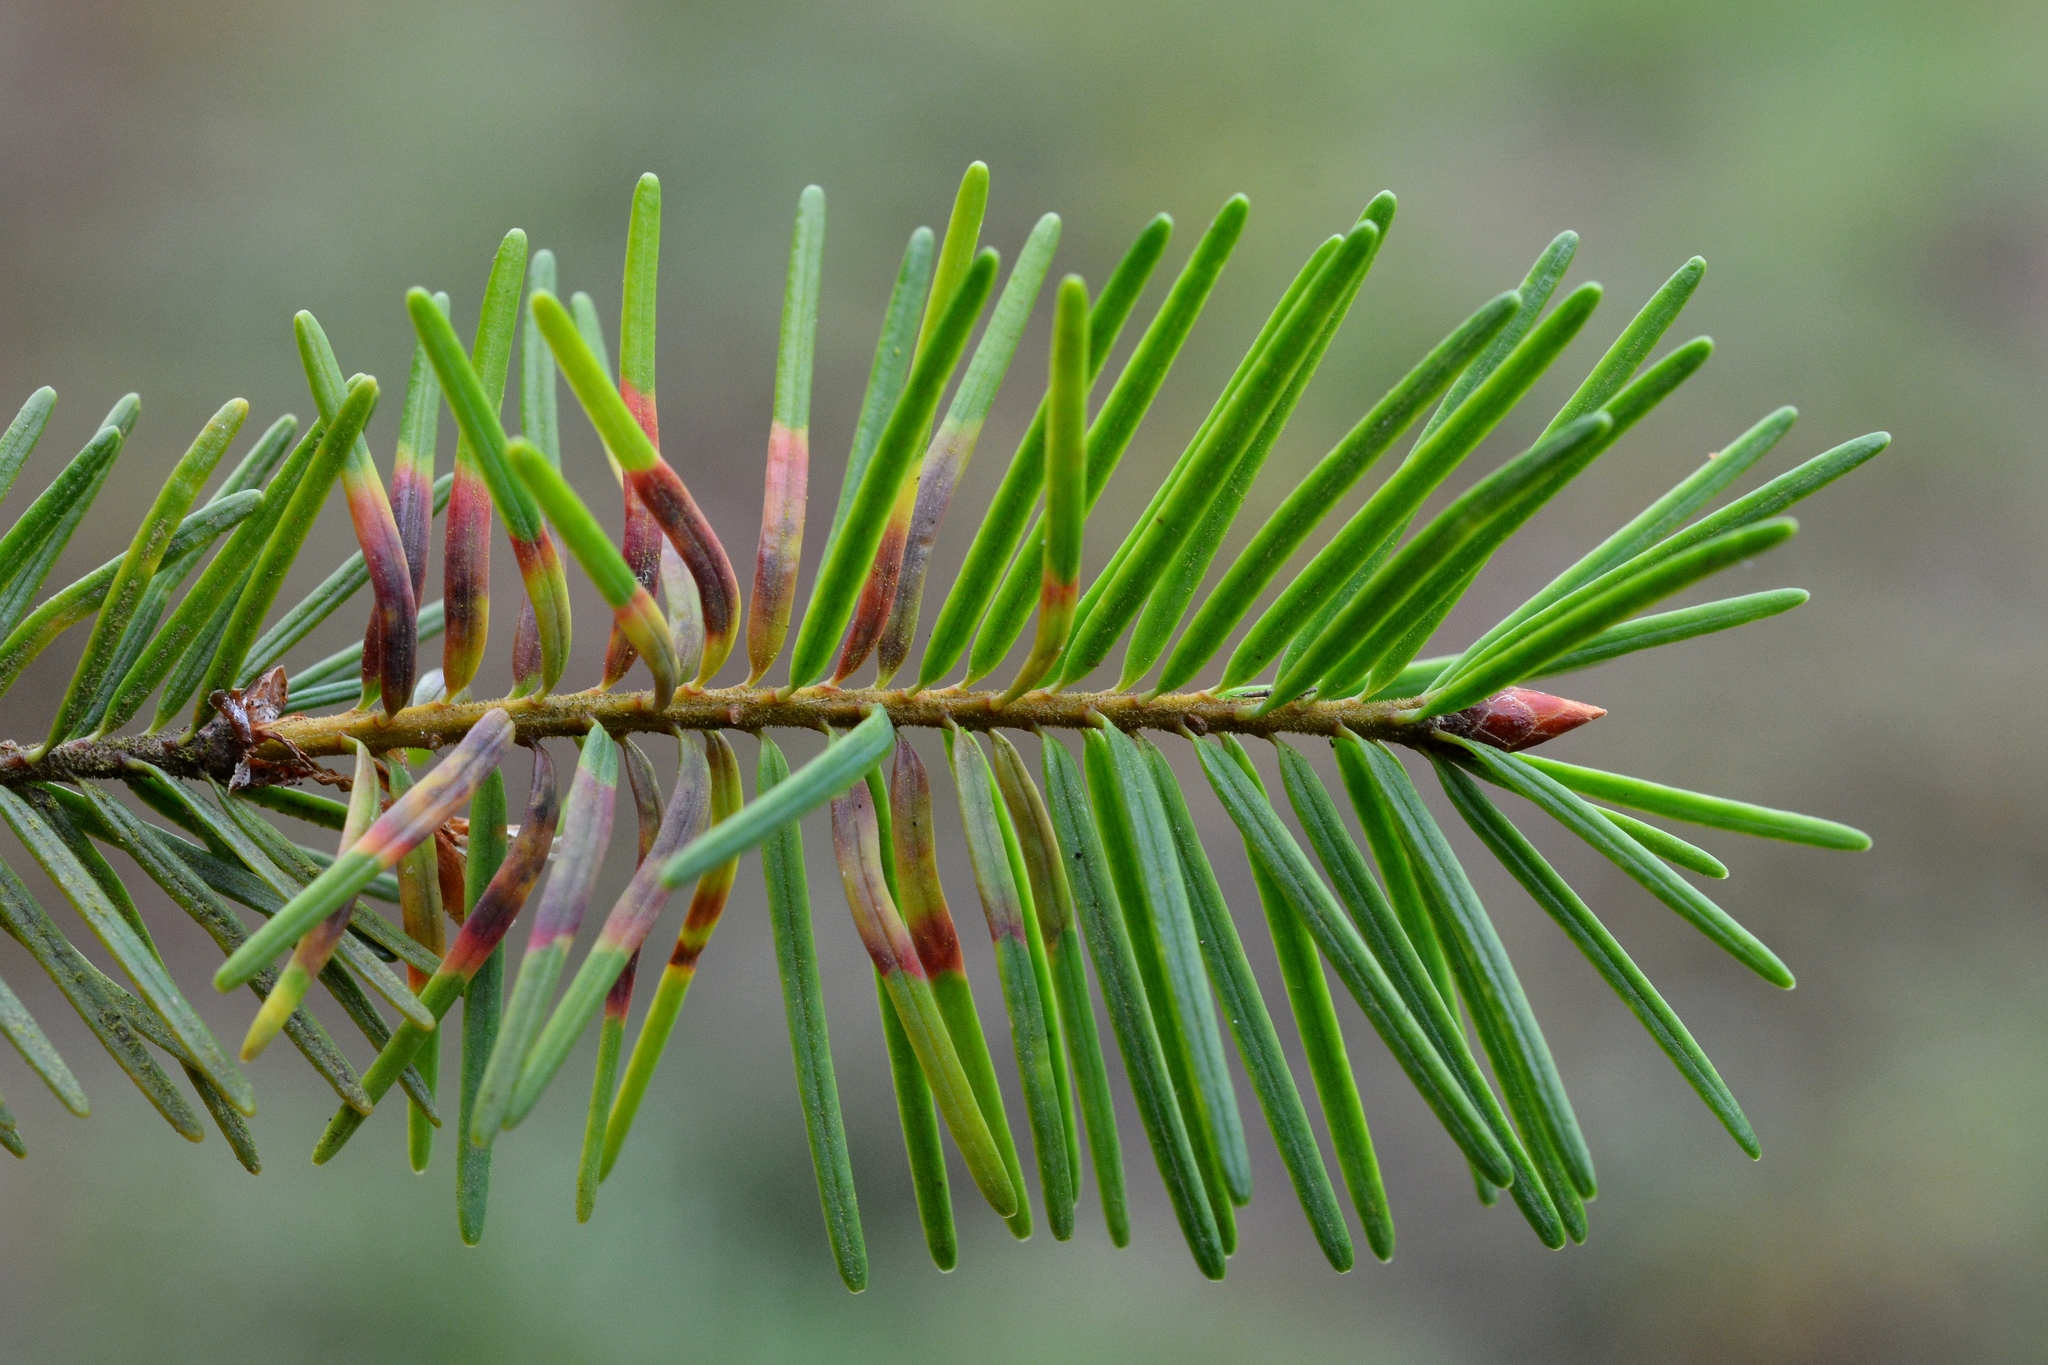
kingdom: Animalia
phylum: Arthropoda
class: Insecta
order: Diptera
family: Cecidomyiidae
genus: Contarinia
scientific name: Contarinia pseudotsugae
